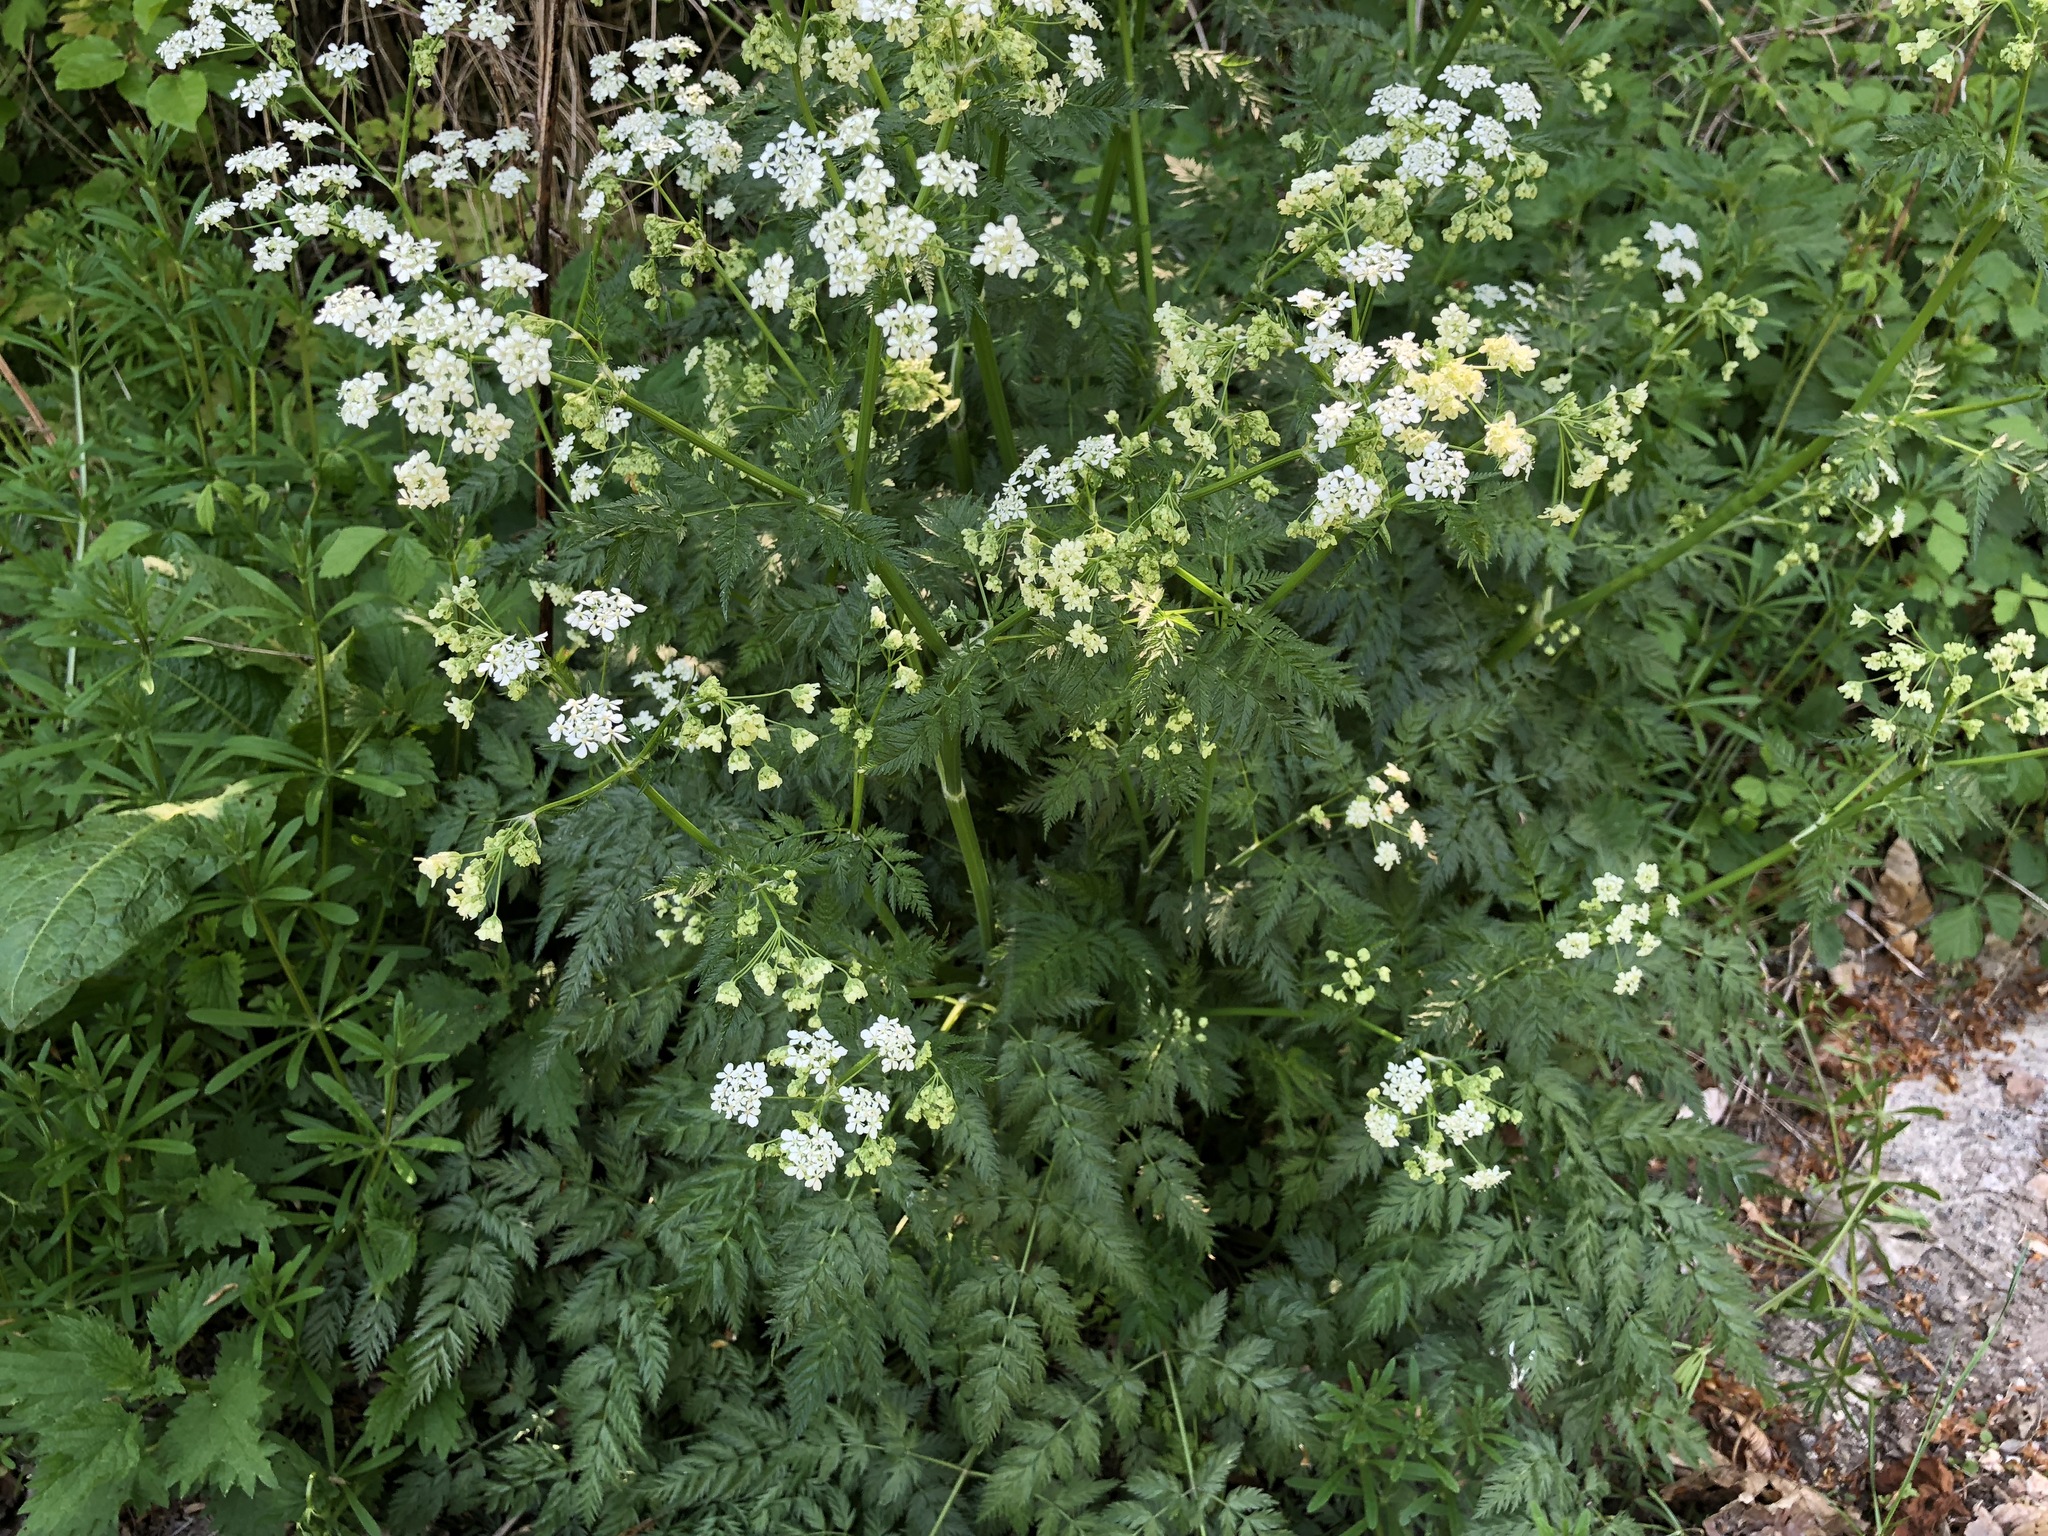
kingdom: Plantae
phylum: Tracheophyta
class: Magnoliopsida
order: Apiales
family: Apiaceae
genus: Anthriscus
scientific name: Anthriscus sylvestris
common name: Cow parsley
